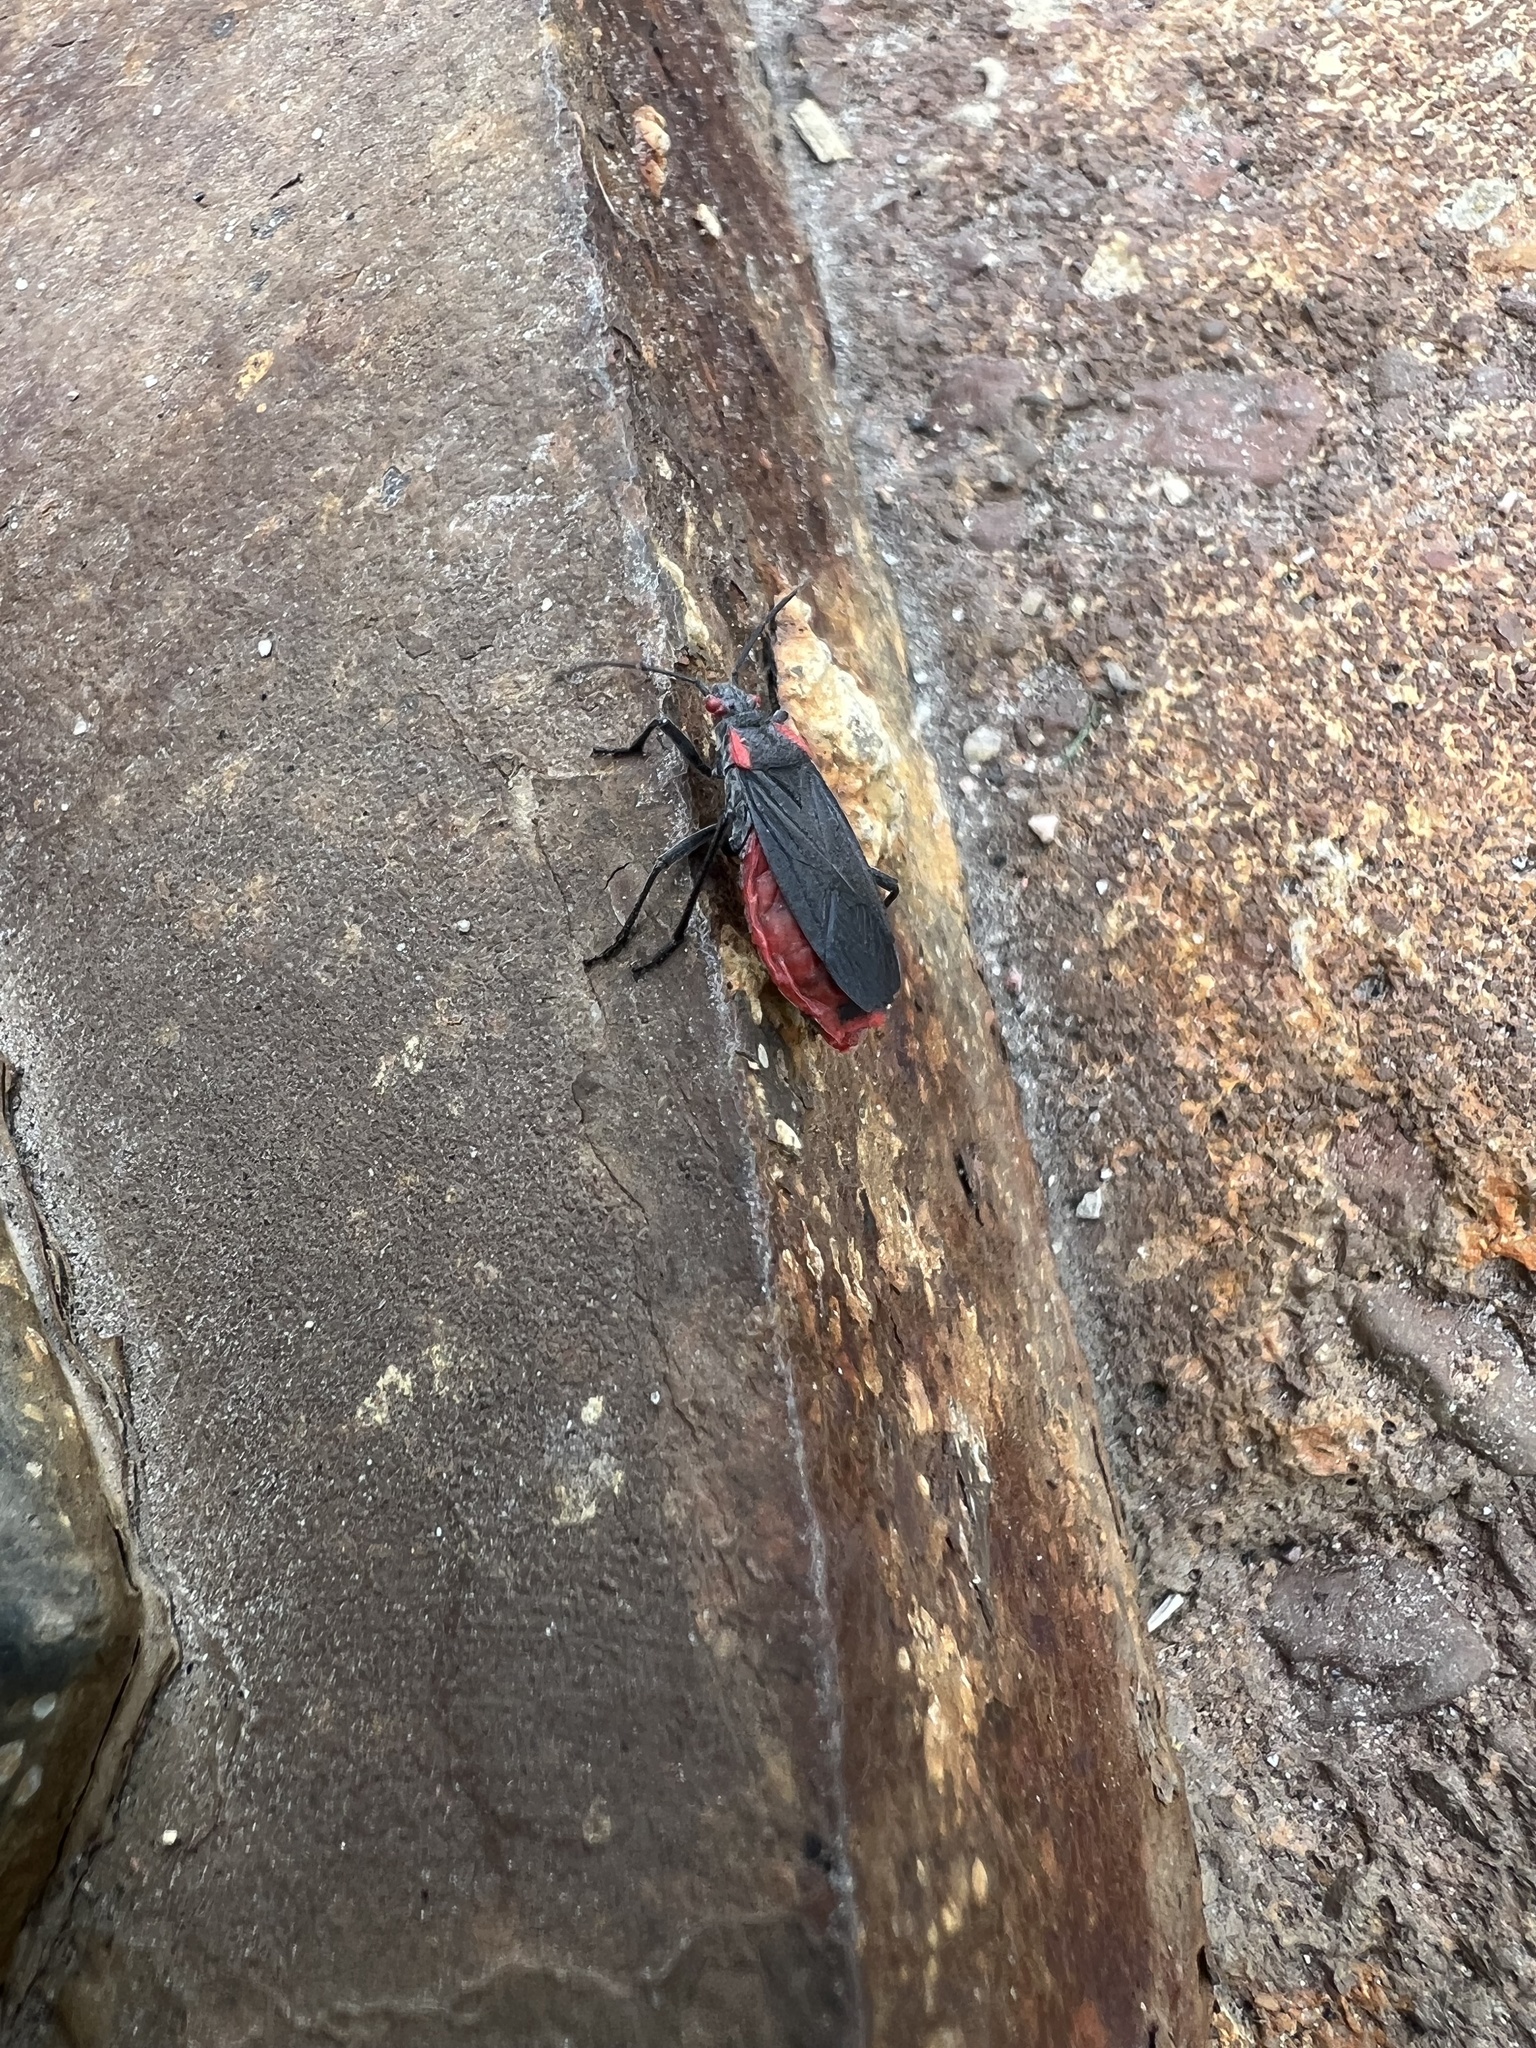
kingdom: Animalia
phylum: Arthropoda
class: Insecta
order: Hemiptera
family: Rhopalidae
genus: Jadera
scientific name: Jadera haematoloma
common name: Red-shouldered bug
